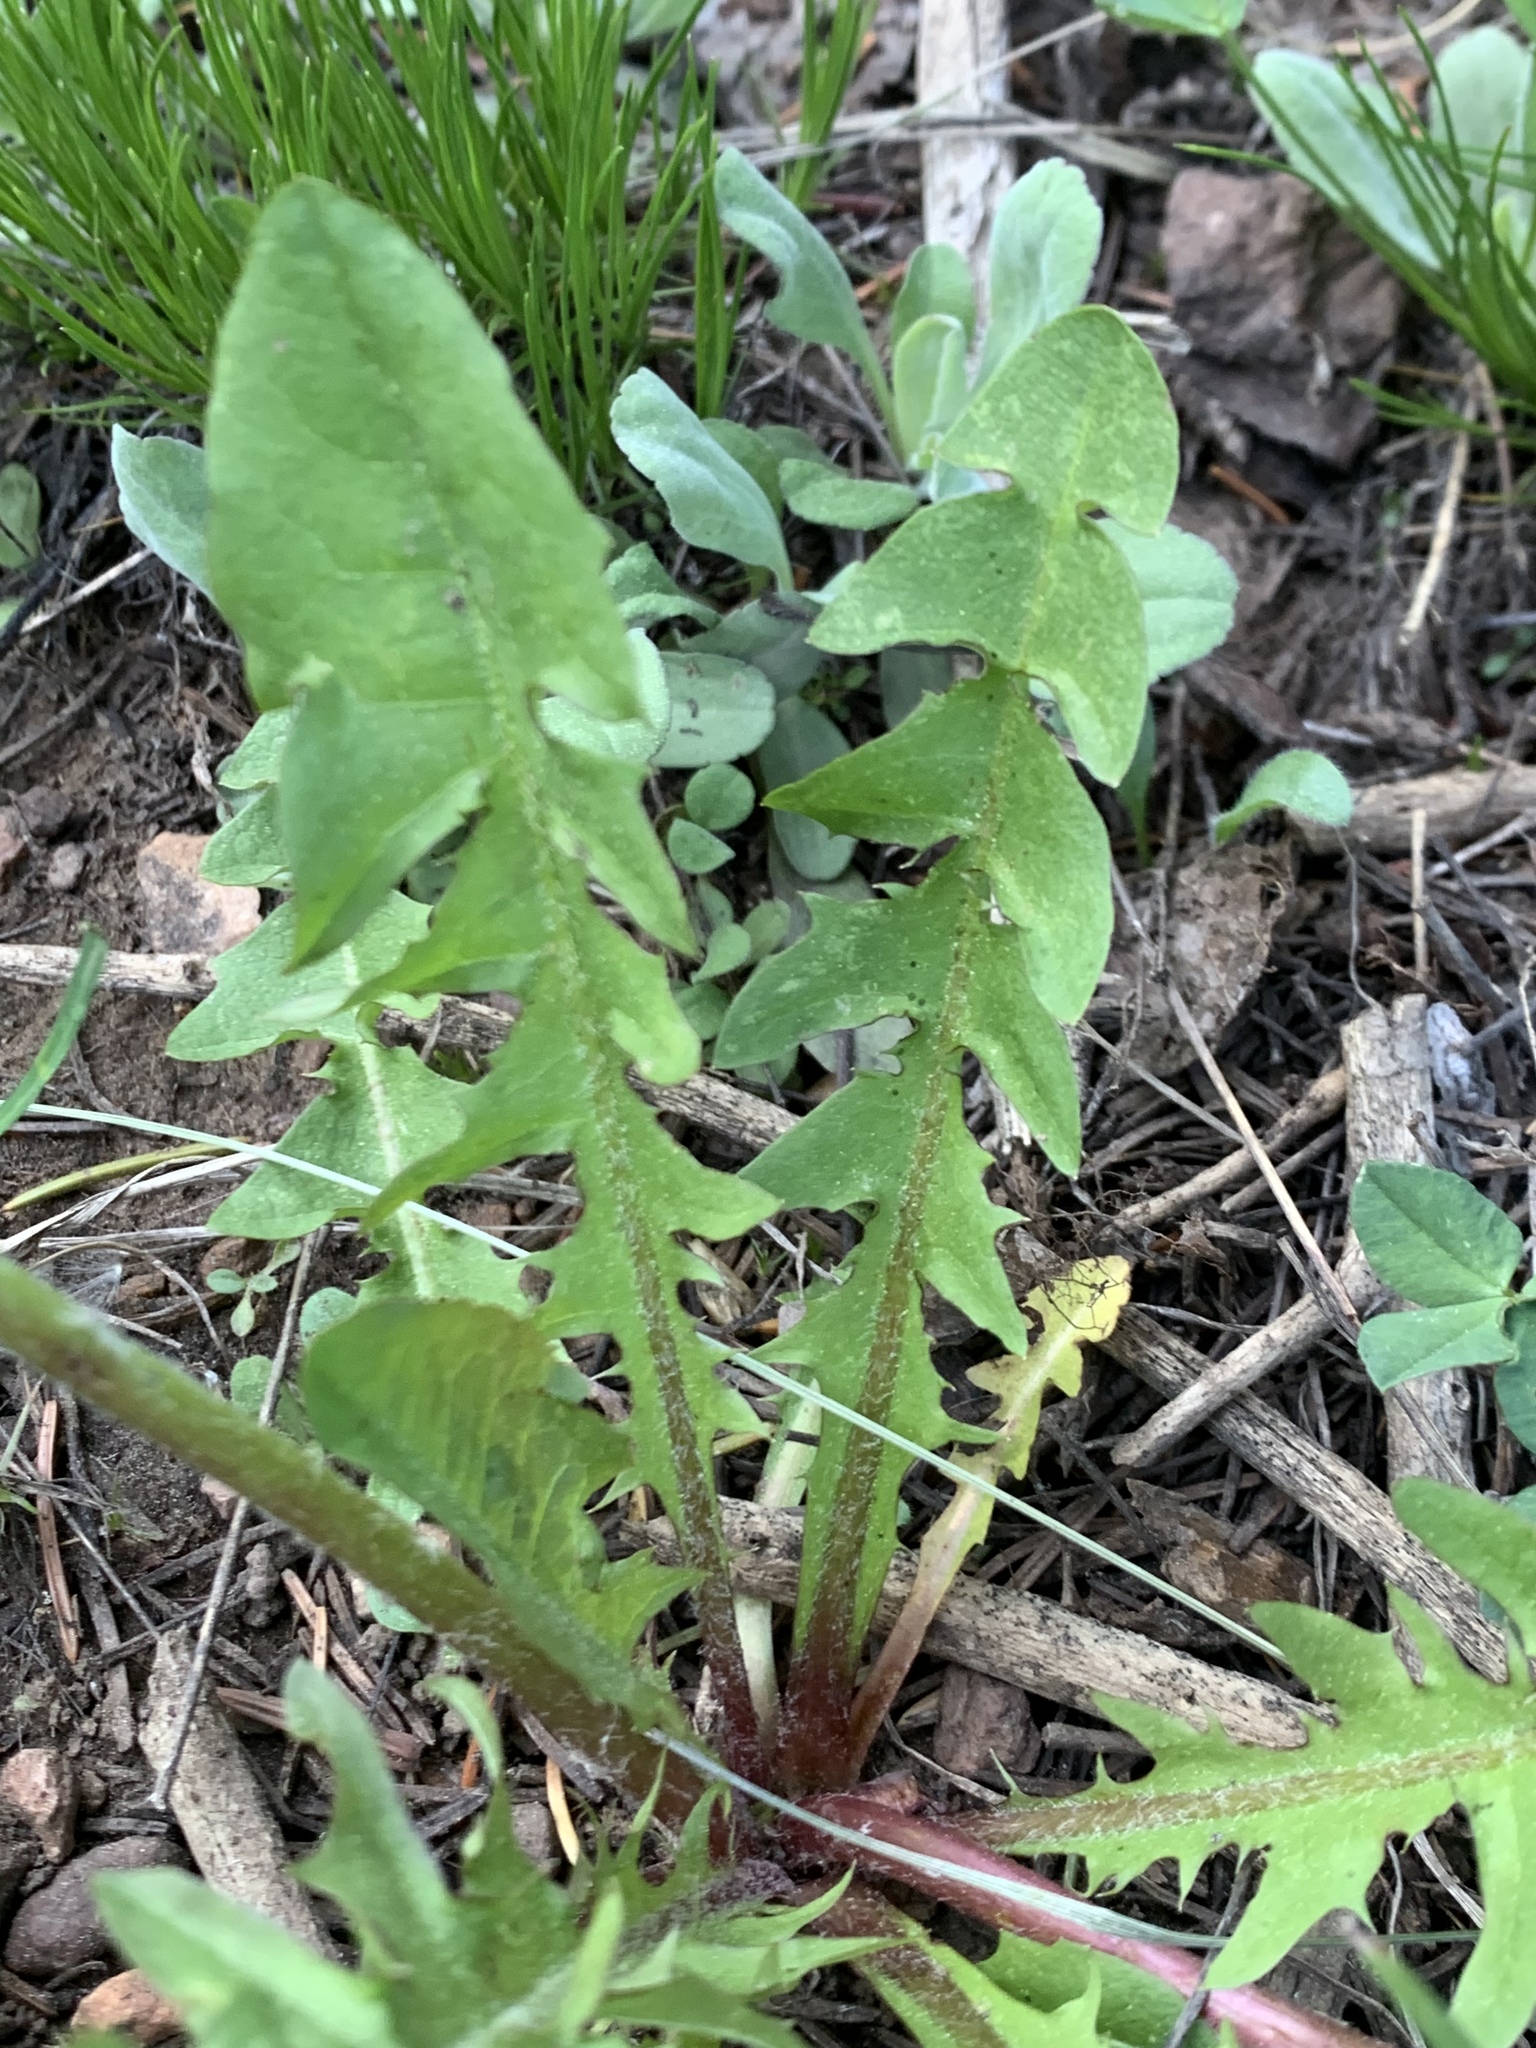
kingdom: Plantae
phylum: Tracheophyta
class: Magnoliopsida
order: Asterales
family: Asteraceae
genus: Taraxacum
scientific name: Taraxacum officinale
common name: Common dandelion
